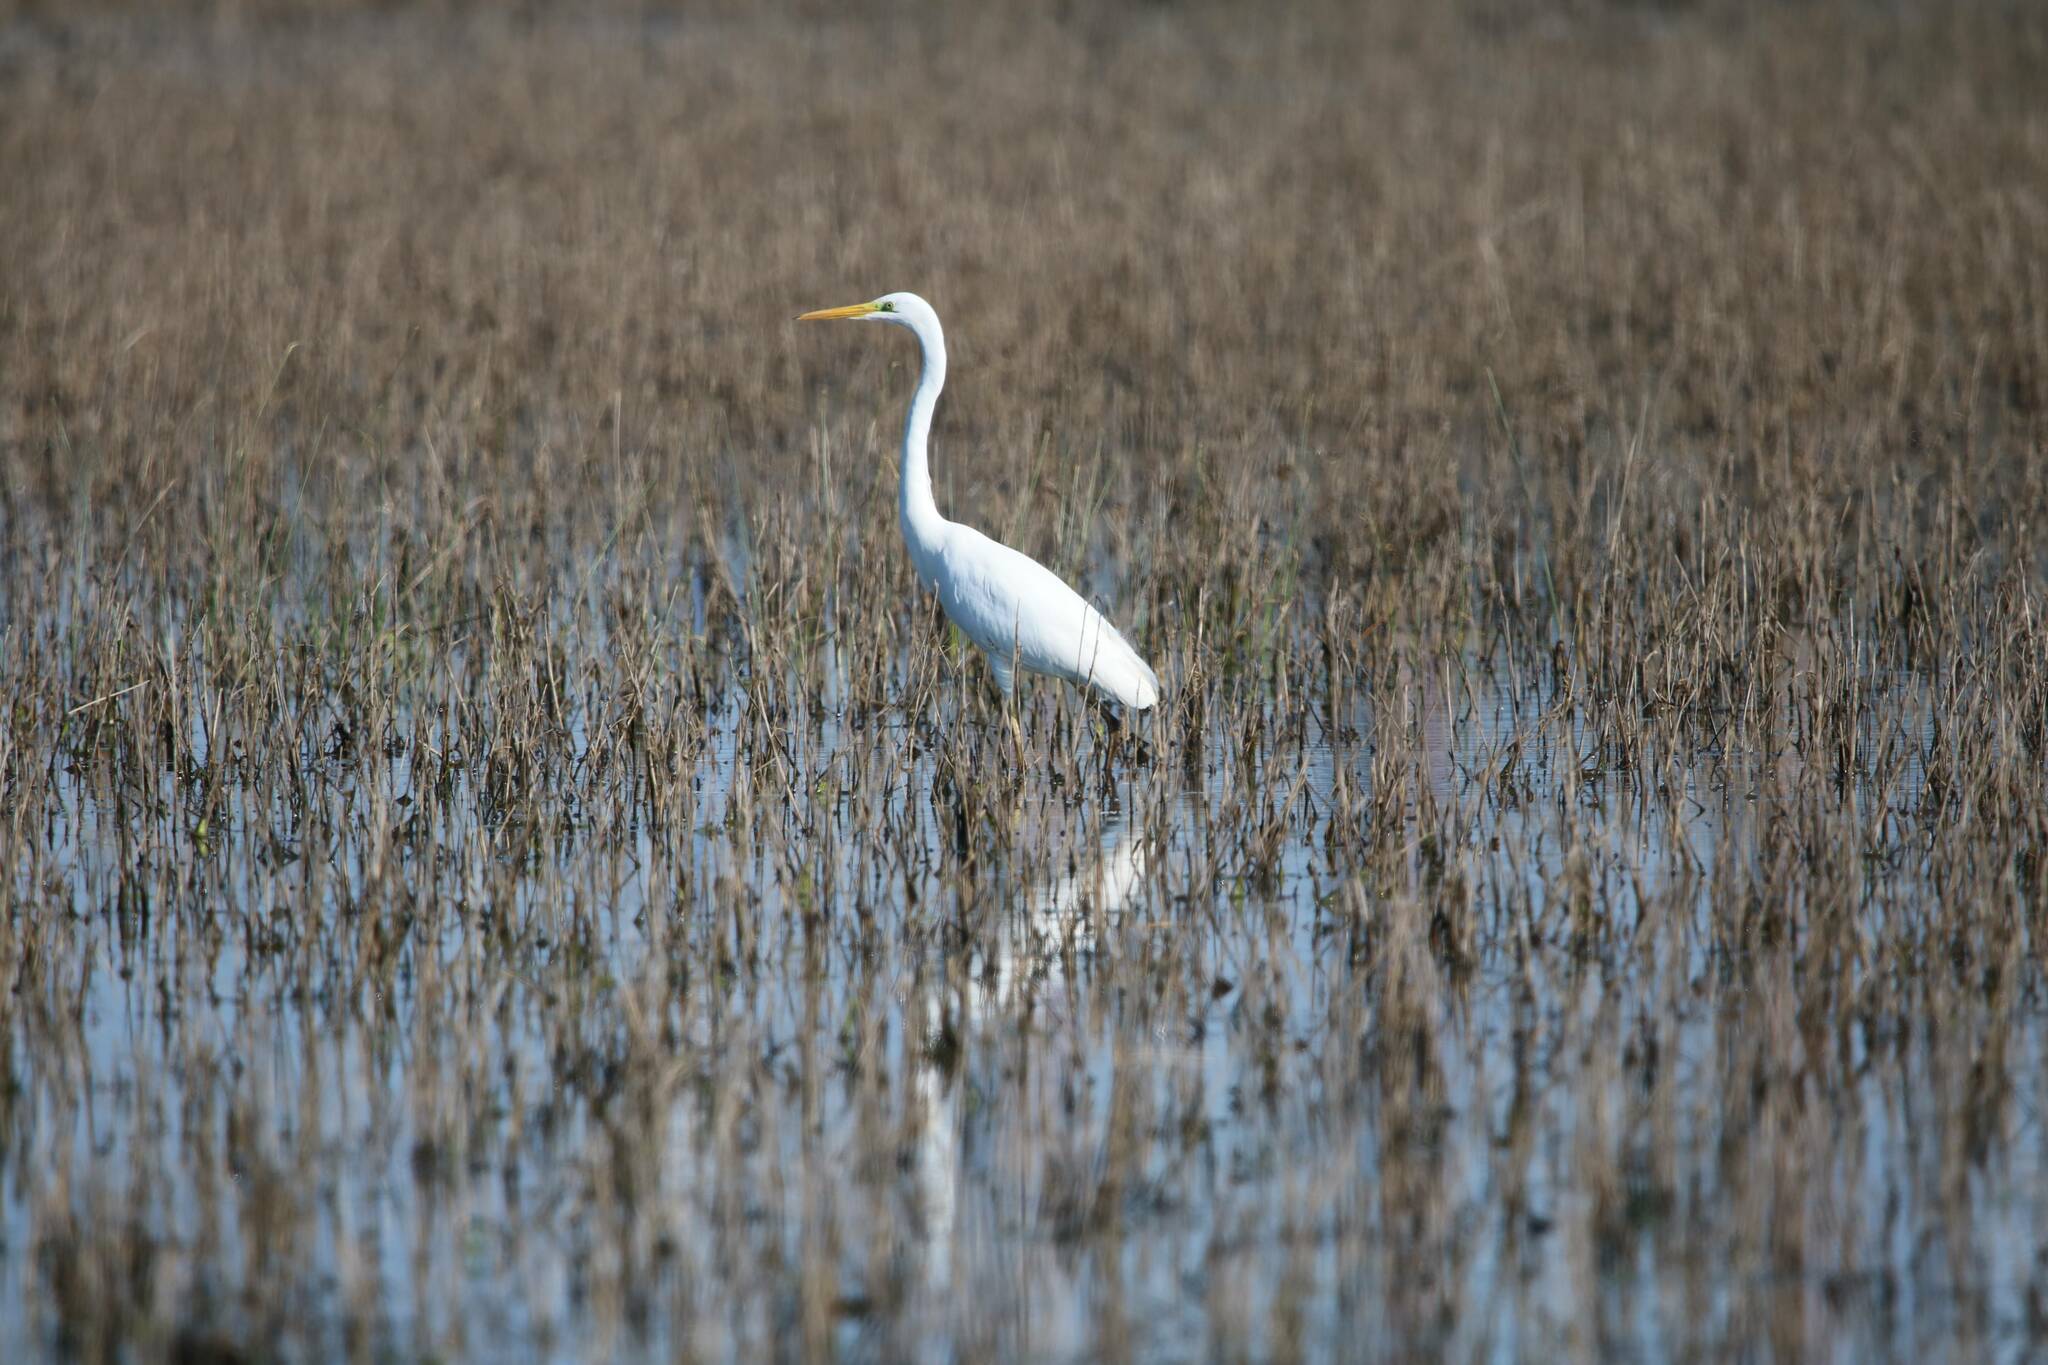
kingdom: Animalia
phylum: Chordata
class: Aves
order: Pelecaniformes
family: Ardeidae
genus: Ardea
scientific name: Ardea alba
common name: Great egret
